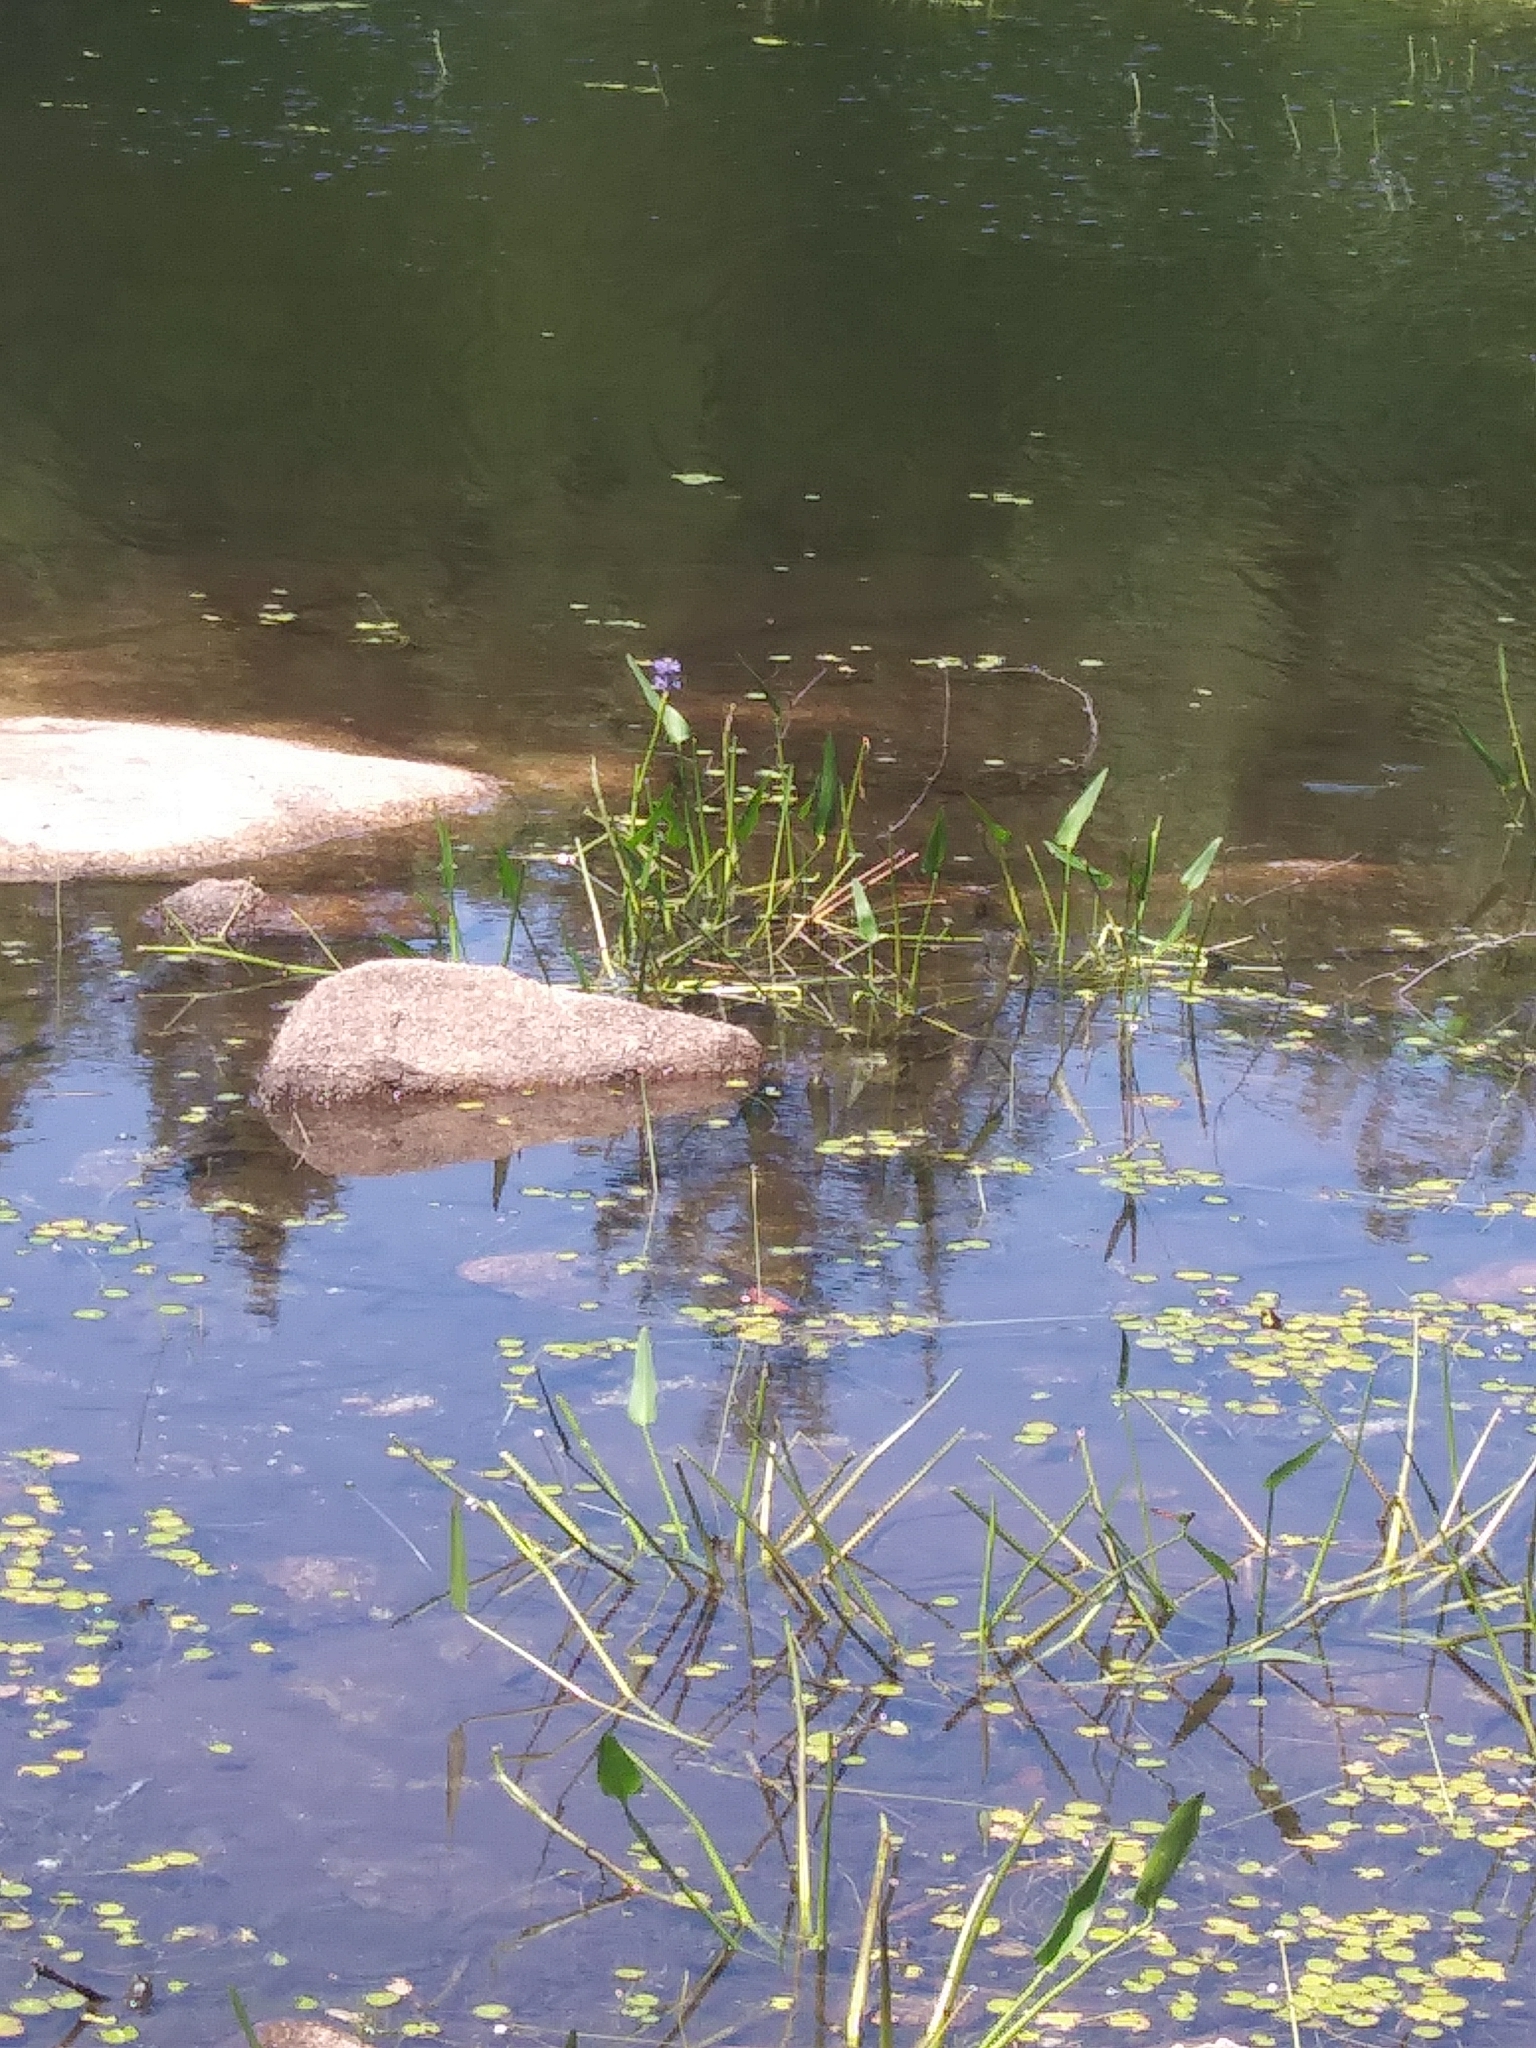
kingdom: Plantae
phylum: Tracheophyta
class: Liliopsida
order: Commelinales
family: Pontederiaceae
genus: Pontederia
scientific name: Pontederia cordata
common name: Pickerelweed
